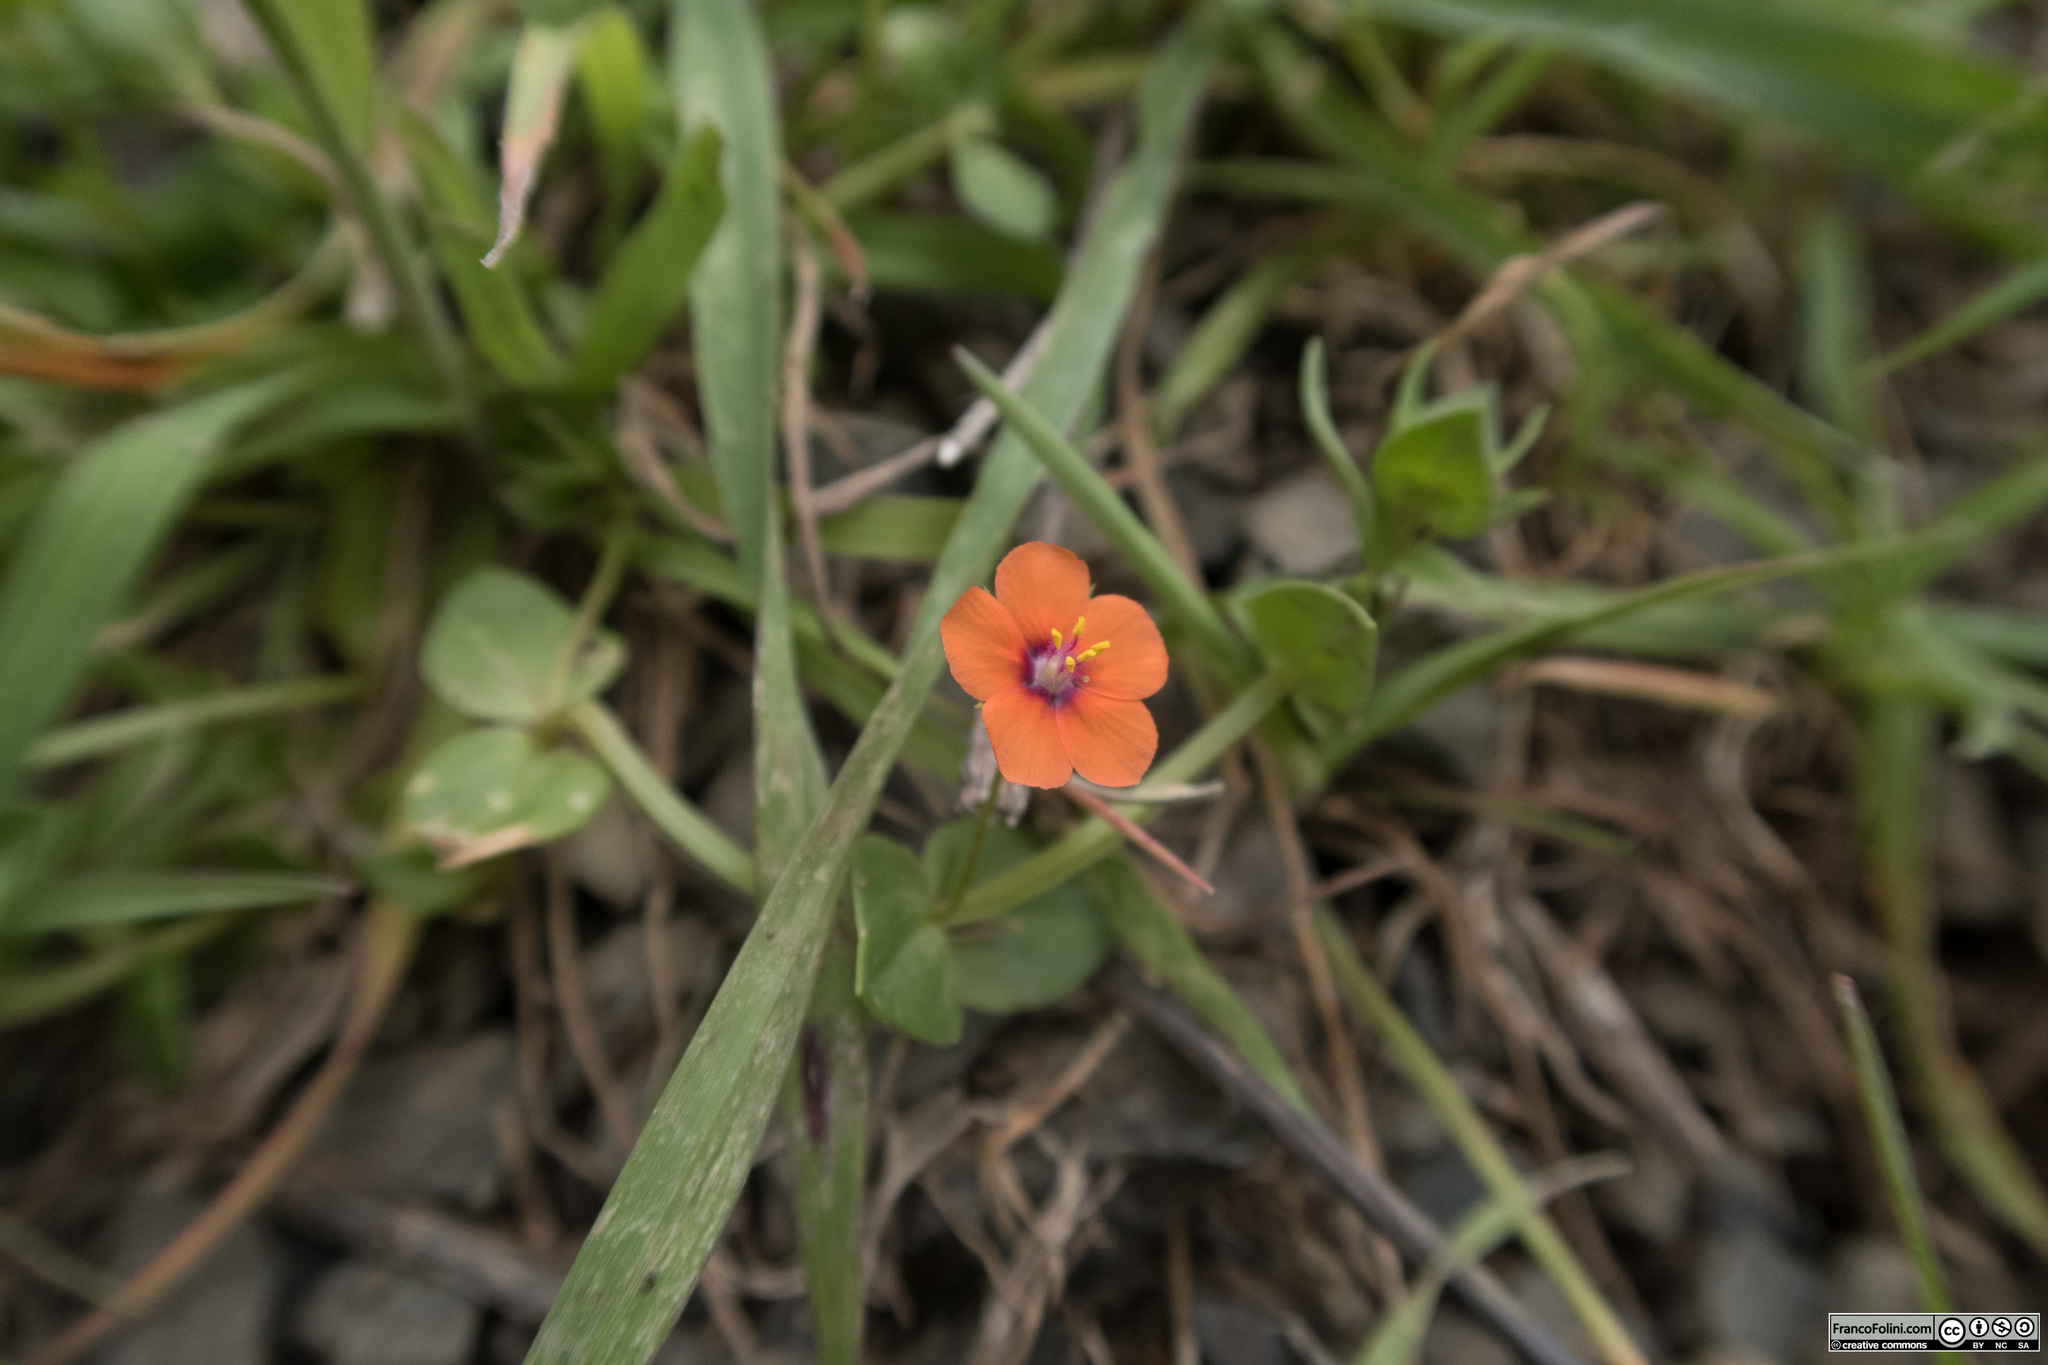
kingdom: Plantae
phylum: Tracheophyta
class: Magnoliopsida
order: Ericales
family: Primulaceae
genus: Lysimachia
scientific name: Lysimachia arvensis
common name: Scarlet pimpernel
